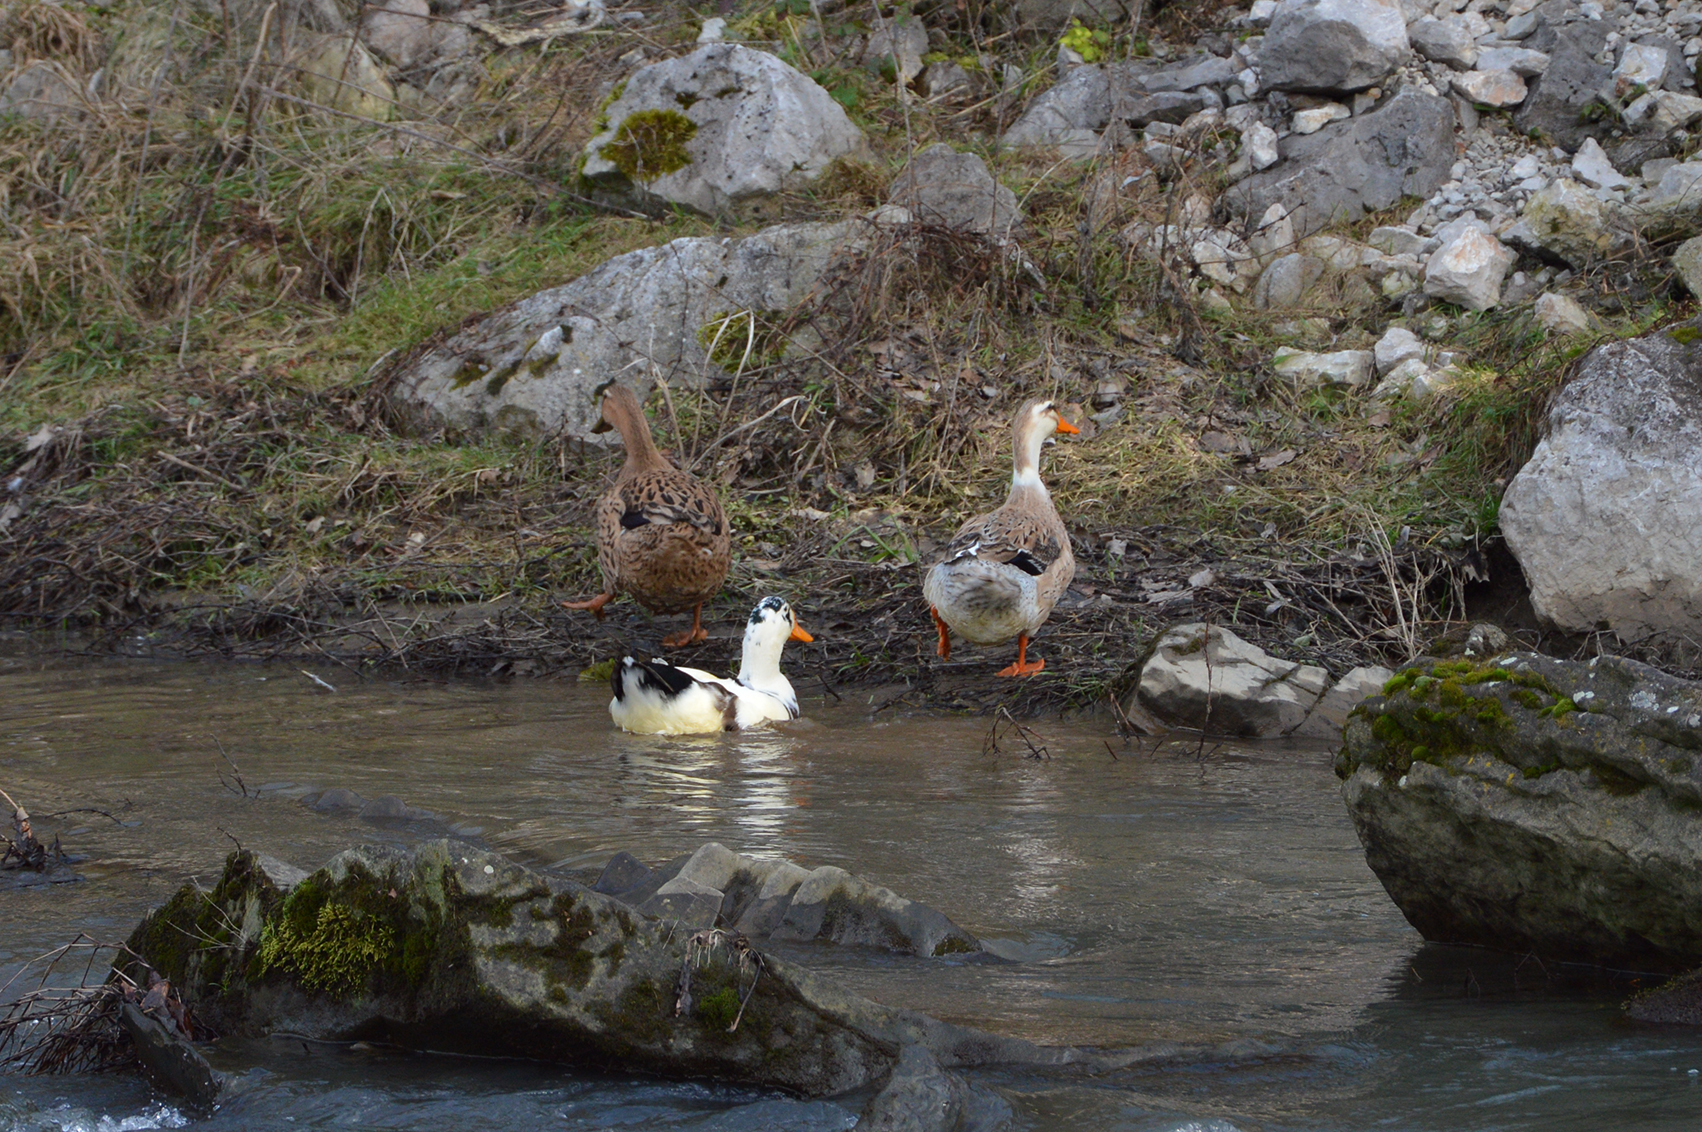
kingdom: Animalia
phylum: Chordata
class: Aves
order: Anseriformes
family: Anatidae
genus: Anas
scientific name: Anas platyrhynchos
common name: Mallard
